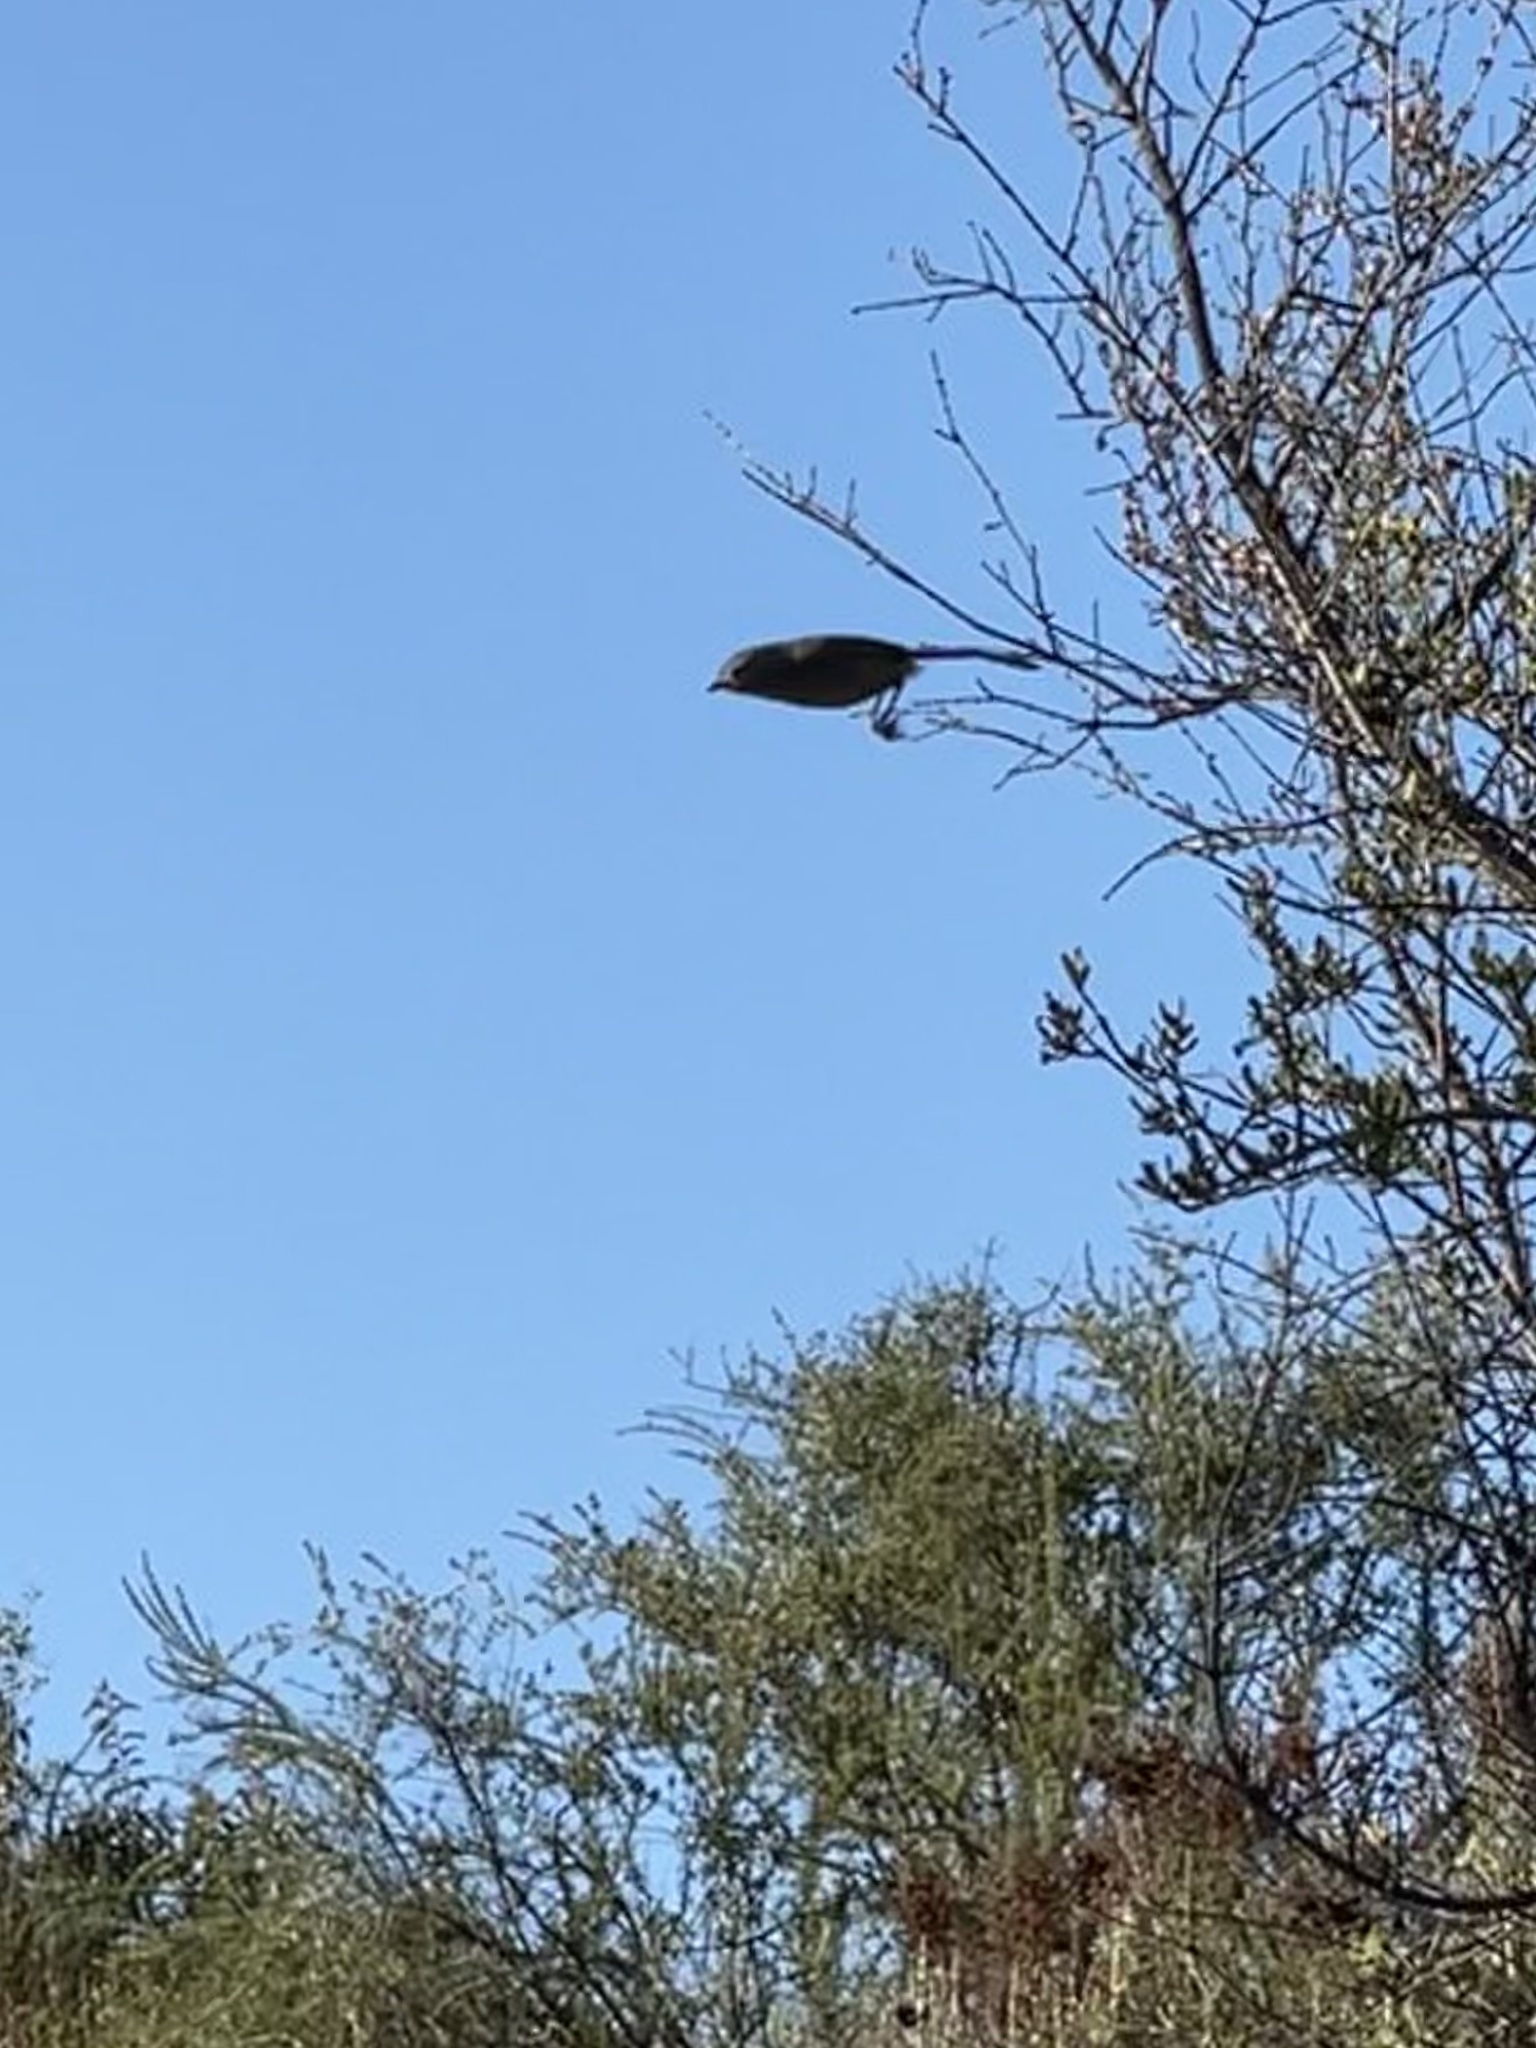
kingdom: Animalia
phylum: Chordata
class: Aves
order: Passeriformes
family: Sylviidae
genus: Chamaea
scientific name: Chamaea fasciata
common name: Wrentit
